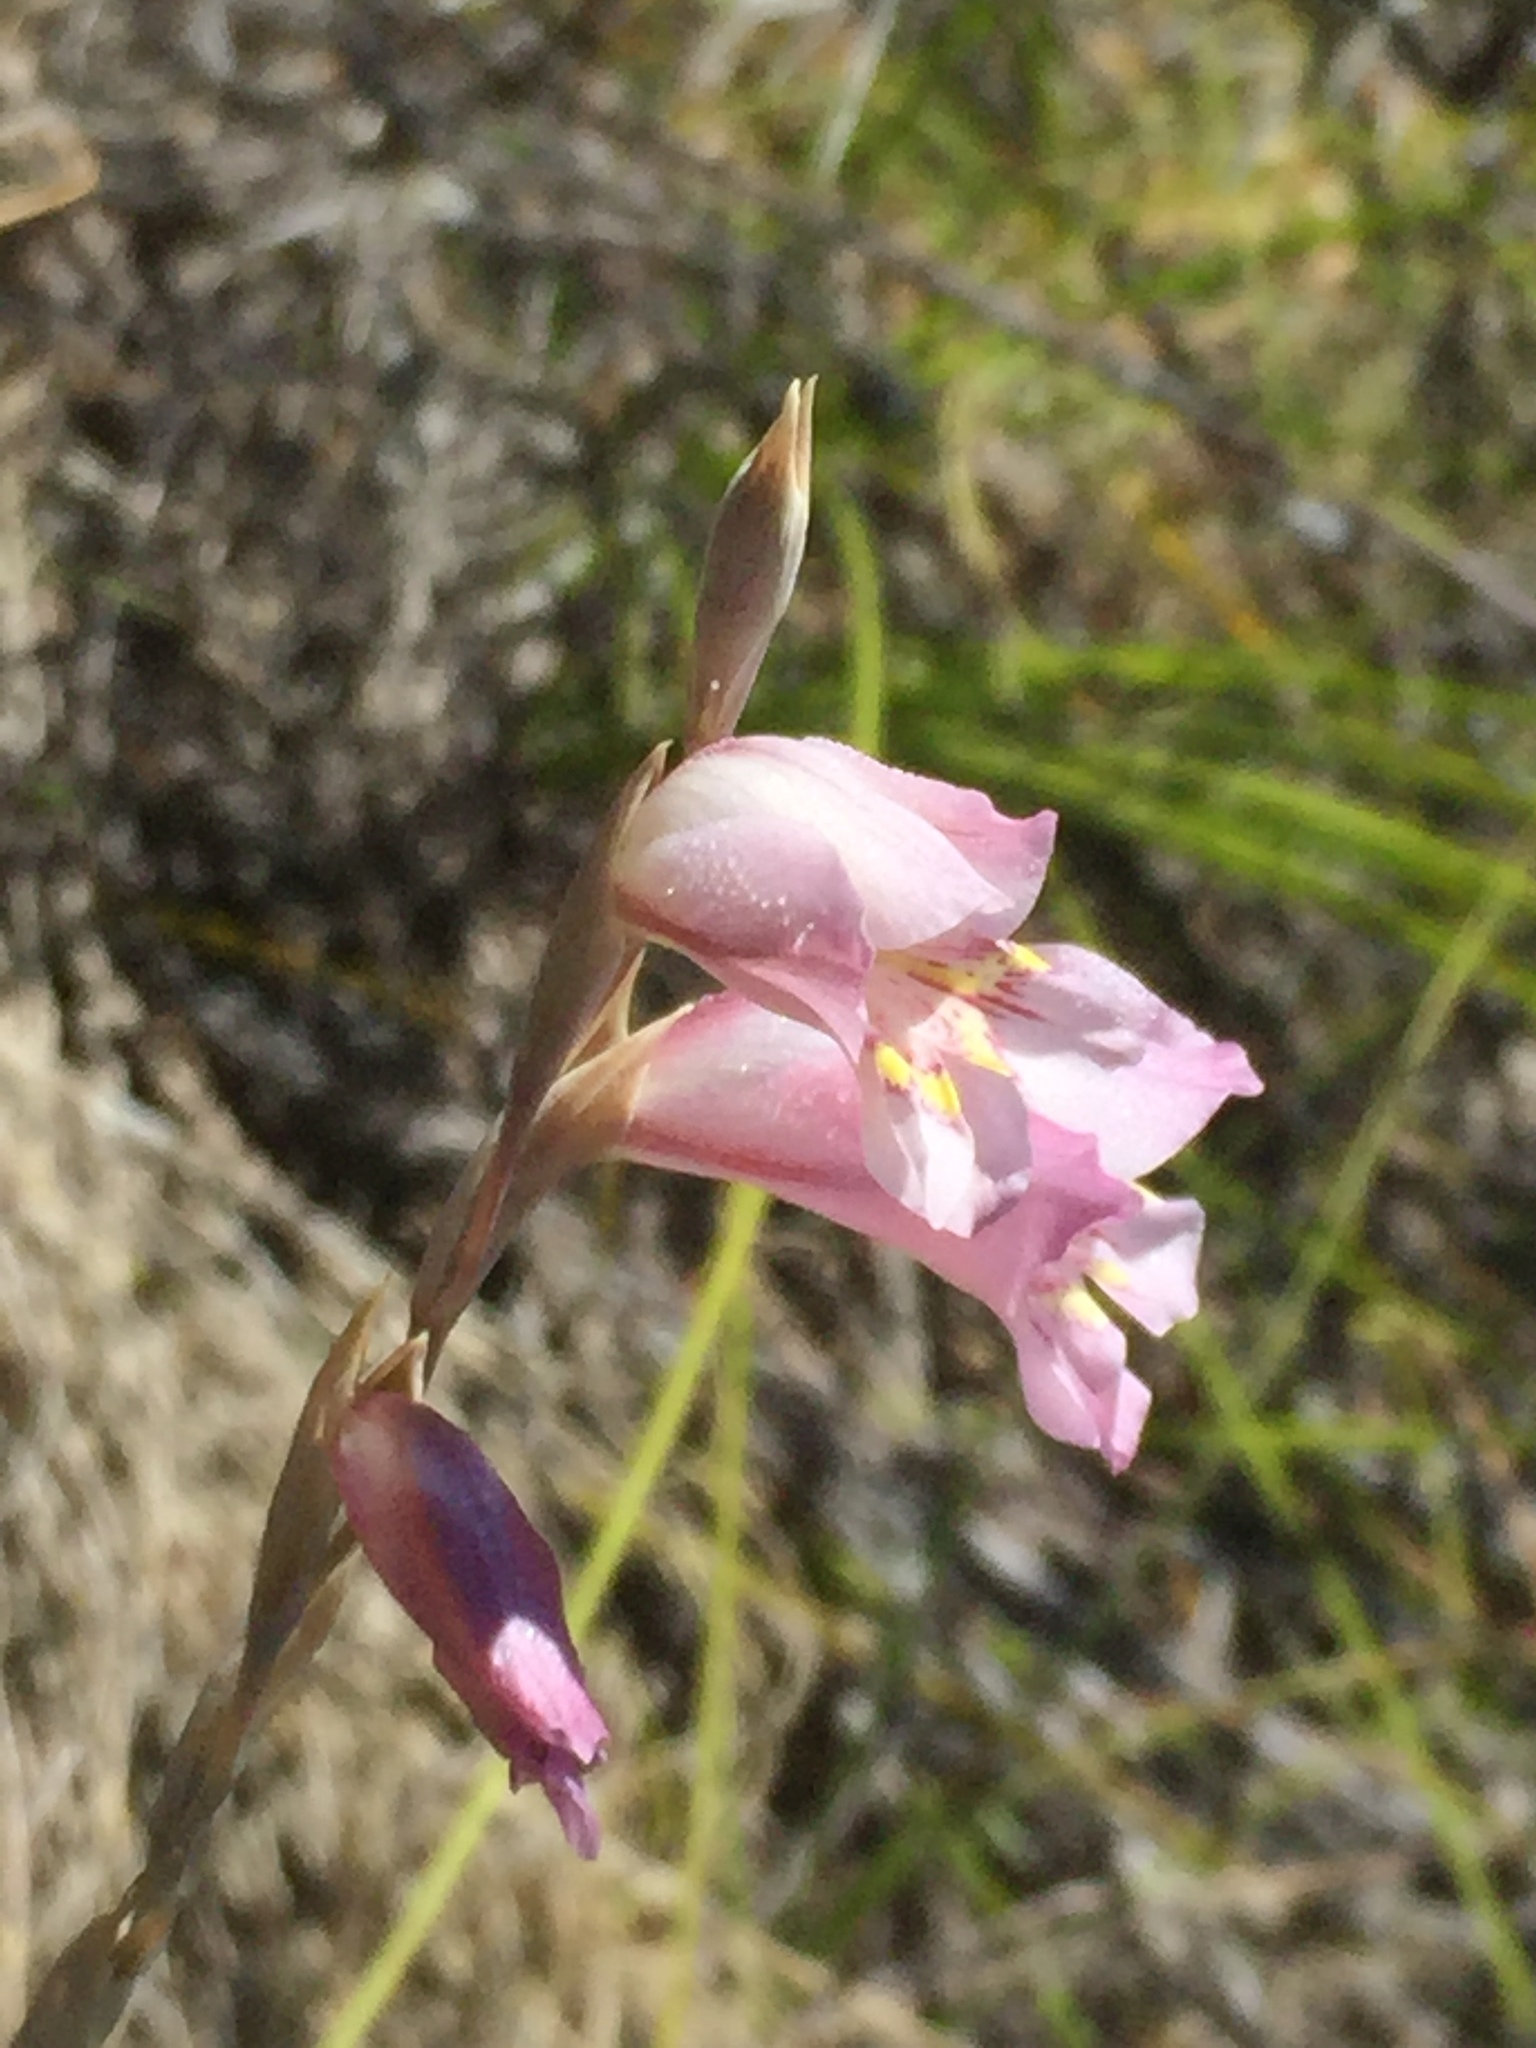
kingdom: Plantae
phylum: Tracheophyta
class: Liliopsida
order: Asparagales
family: Iridaceae
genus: Gladiolus
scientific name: Gladiolus brevifolius
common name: March pypie
